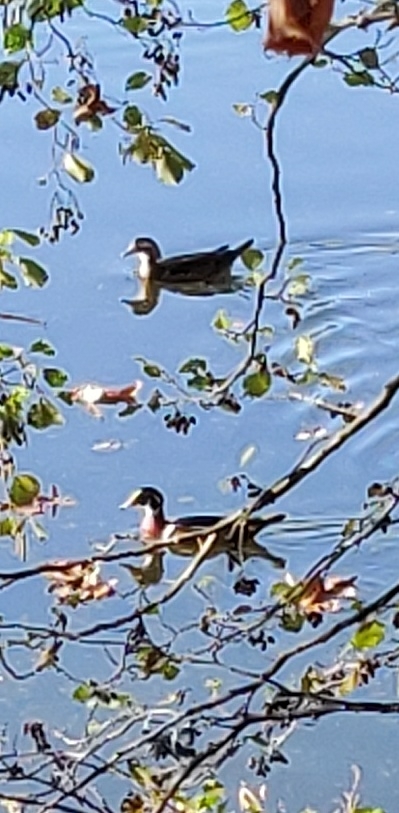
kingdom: Animalia
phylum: Chordata
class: Aves
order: Anseriformes
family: Anatidae
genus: Aix
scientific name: Aix sponsa
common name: Wood duck
